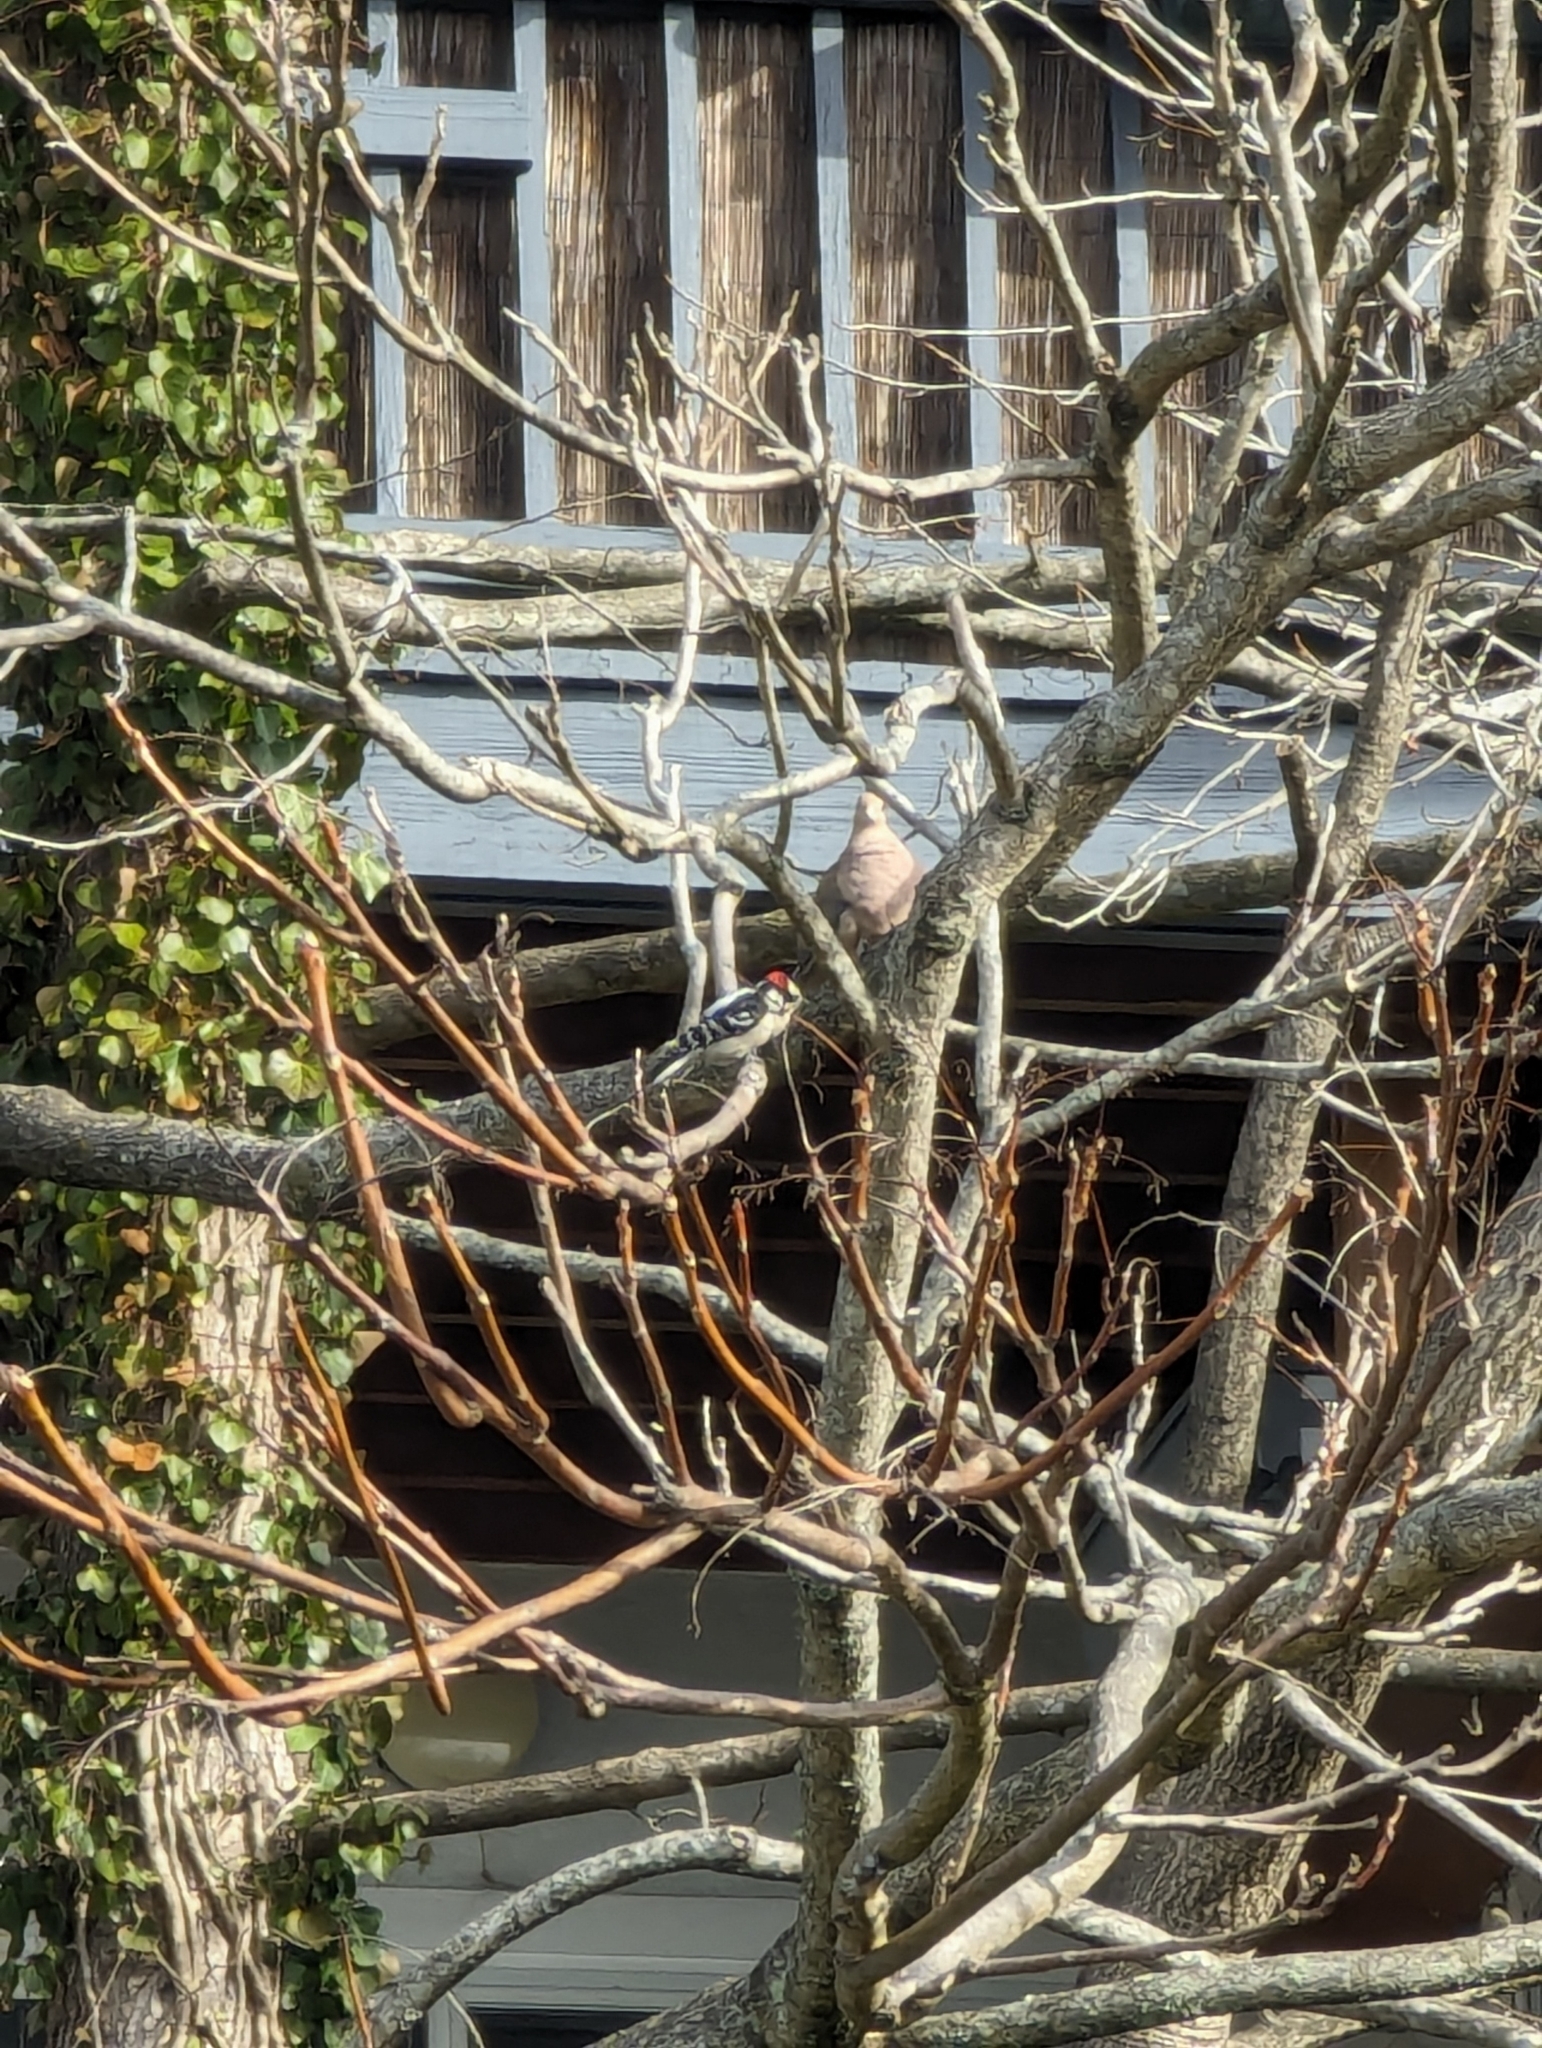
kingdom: Animalia
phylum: Chordata
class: Aves
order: Piciformes
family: Picidae
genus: Dryobates
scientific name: Dryobates pubescens
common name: Downy woodpecker
